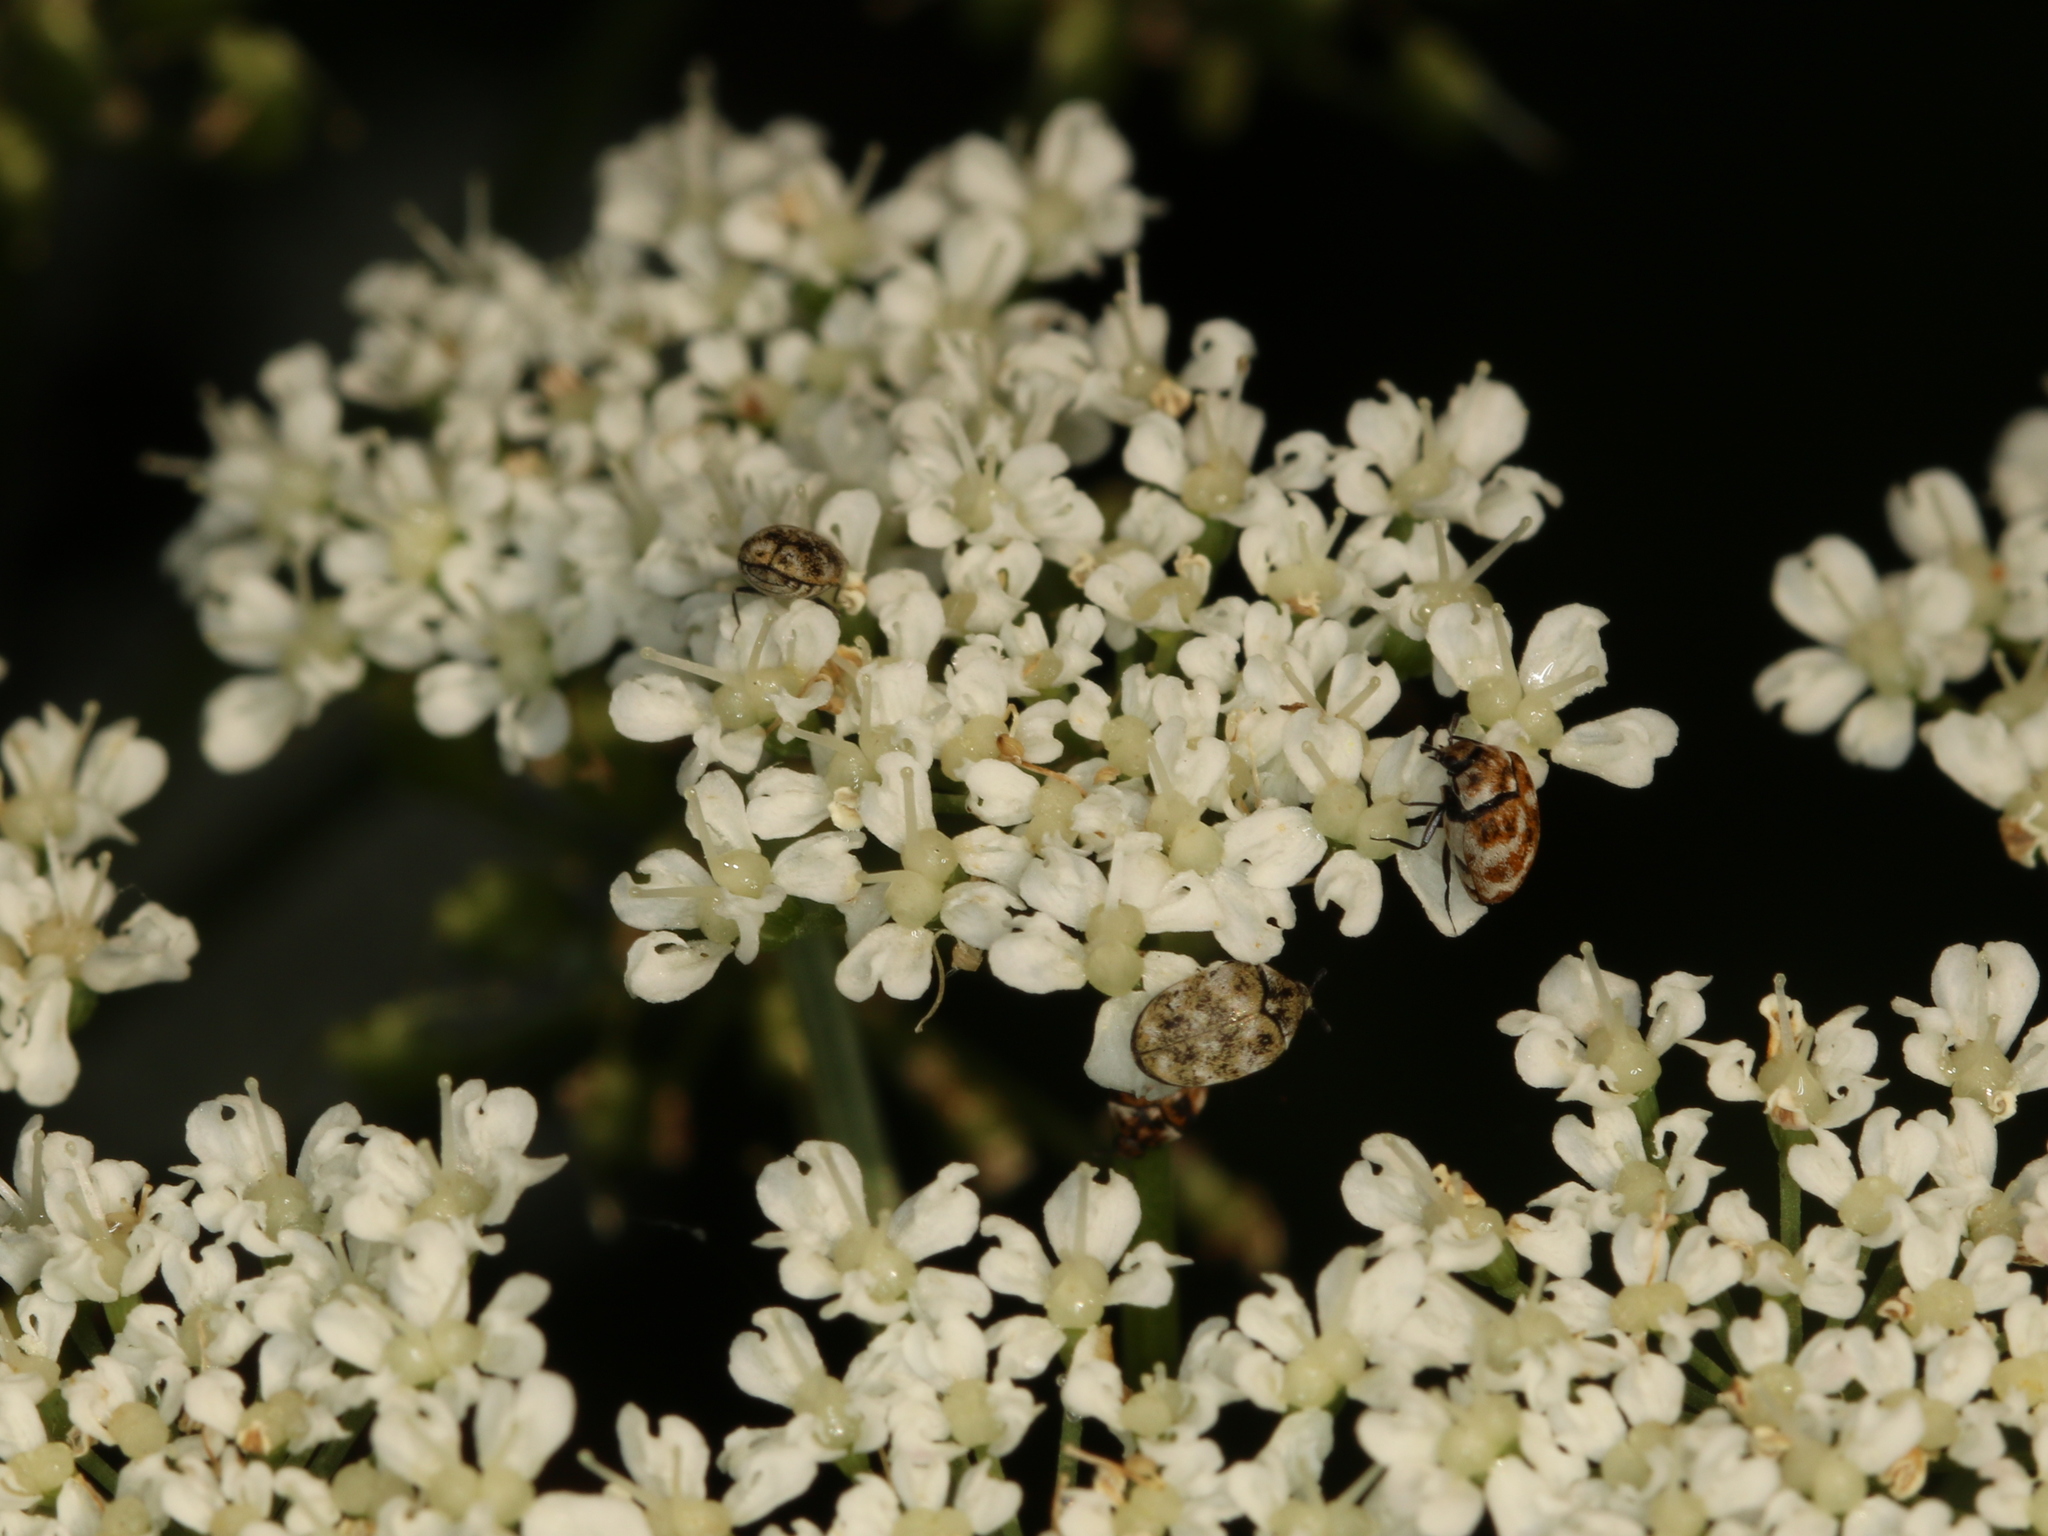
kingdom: Animalia
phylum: Arthropoda
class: Insecta
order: Coleoptera
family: Dermestidae
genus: Anthrenus
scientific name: Anthrenus verbasci
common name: Varied carpet beetle
